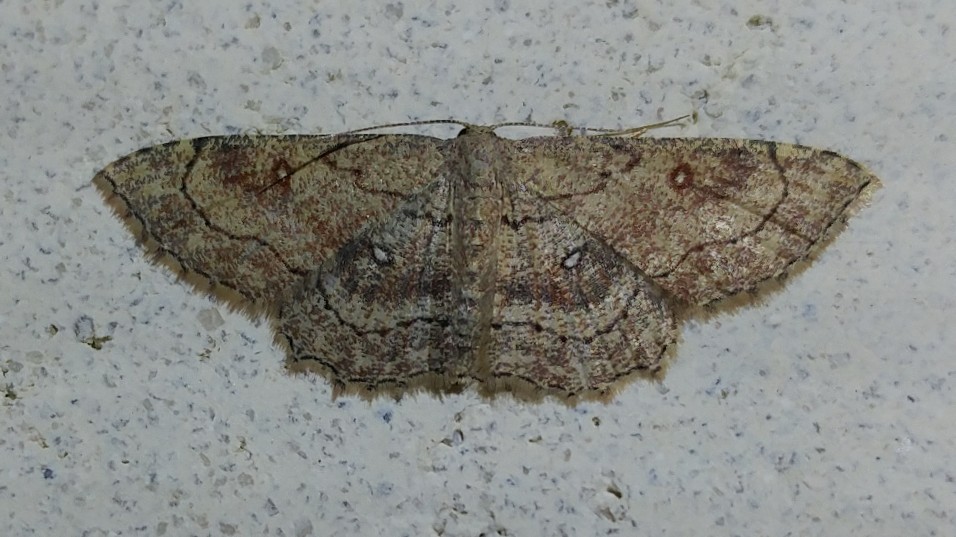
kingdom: Animalia
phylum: Arthropoda
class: Insecta
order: Lepidoptera
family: Geometridae
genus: Cyclophora
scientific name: Cyclophora nanaria
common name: Cankerworm
